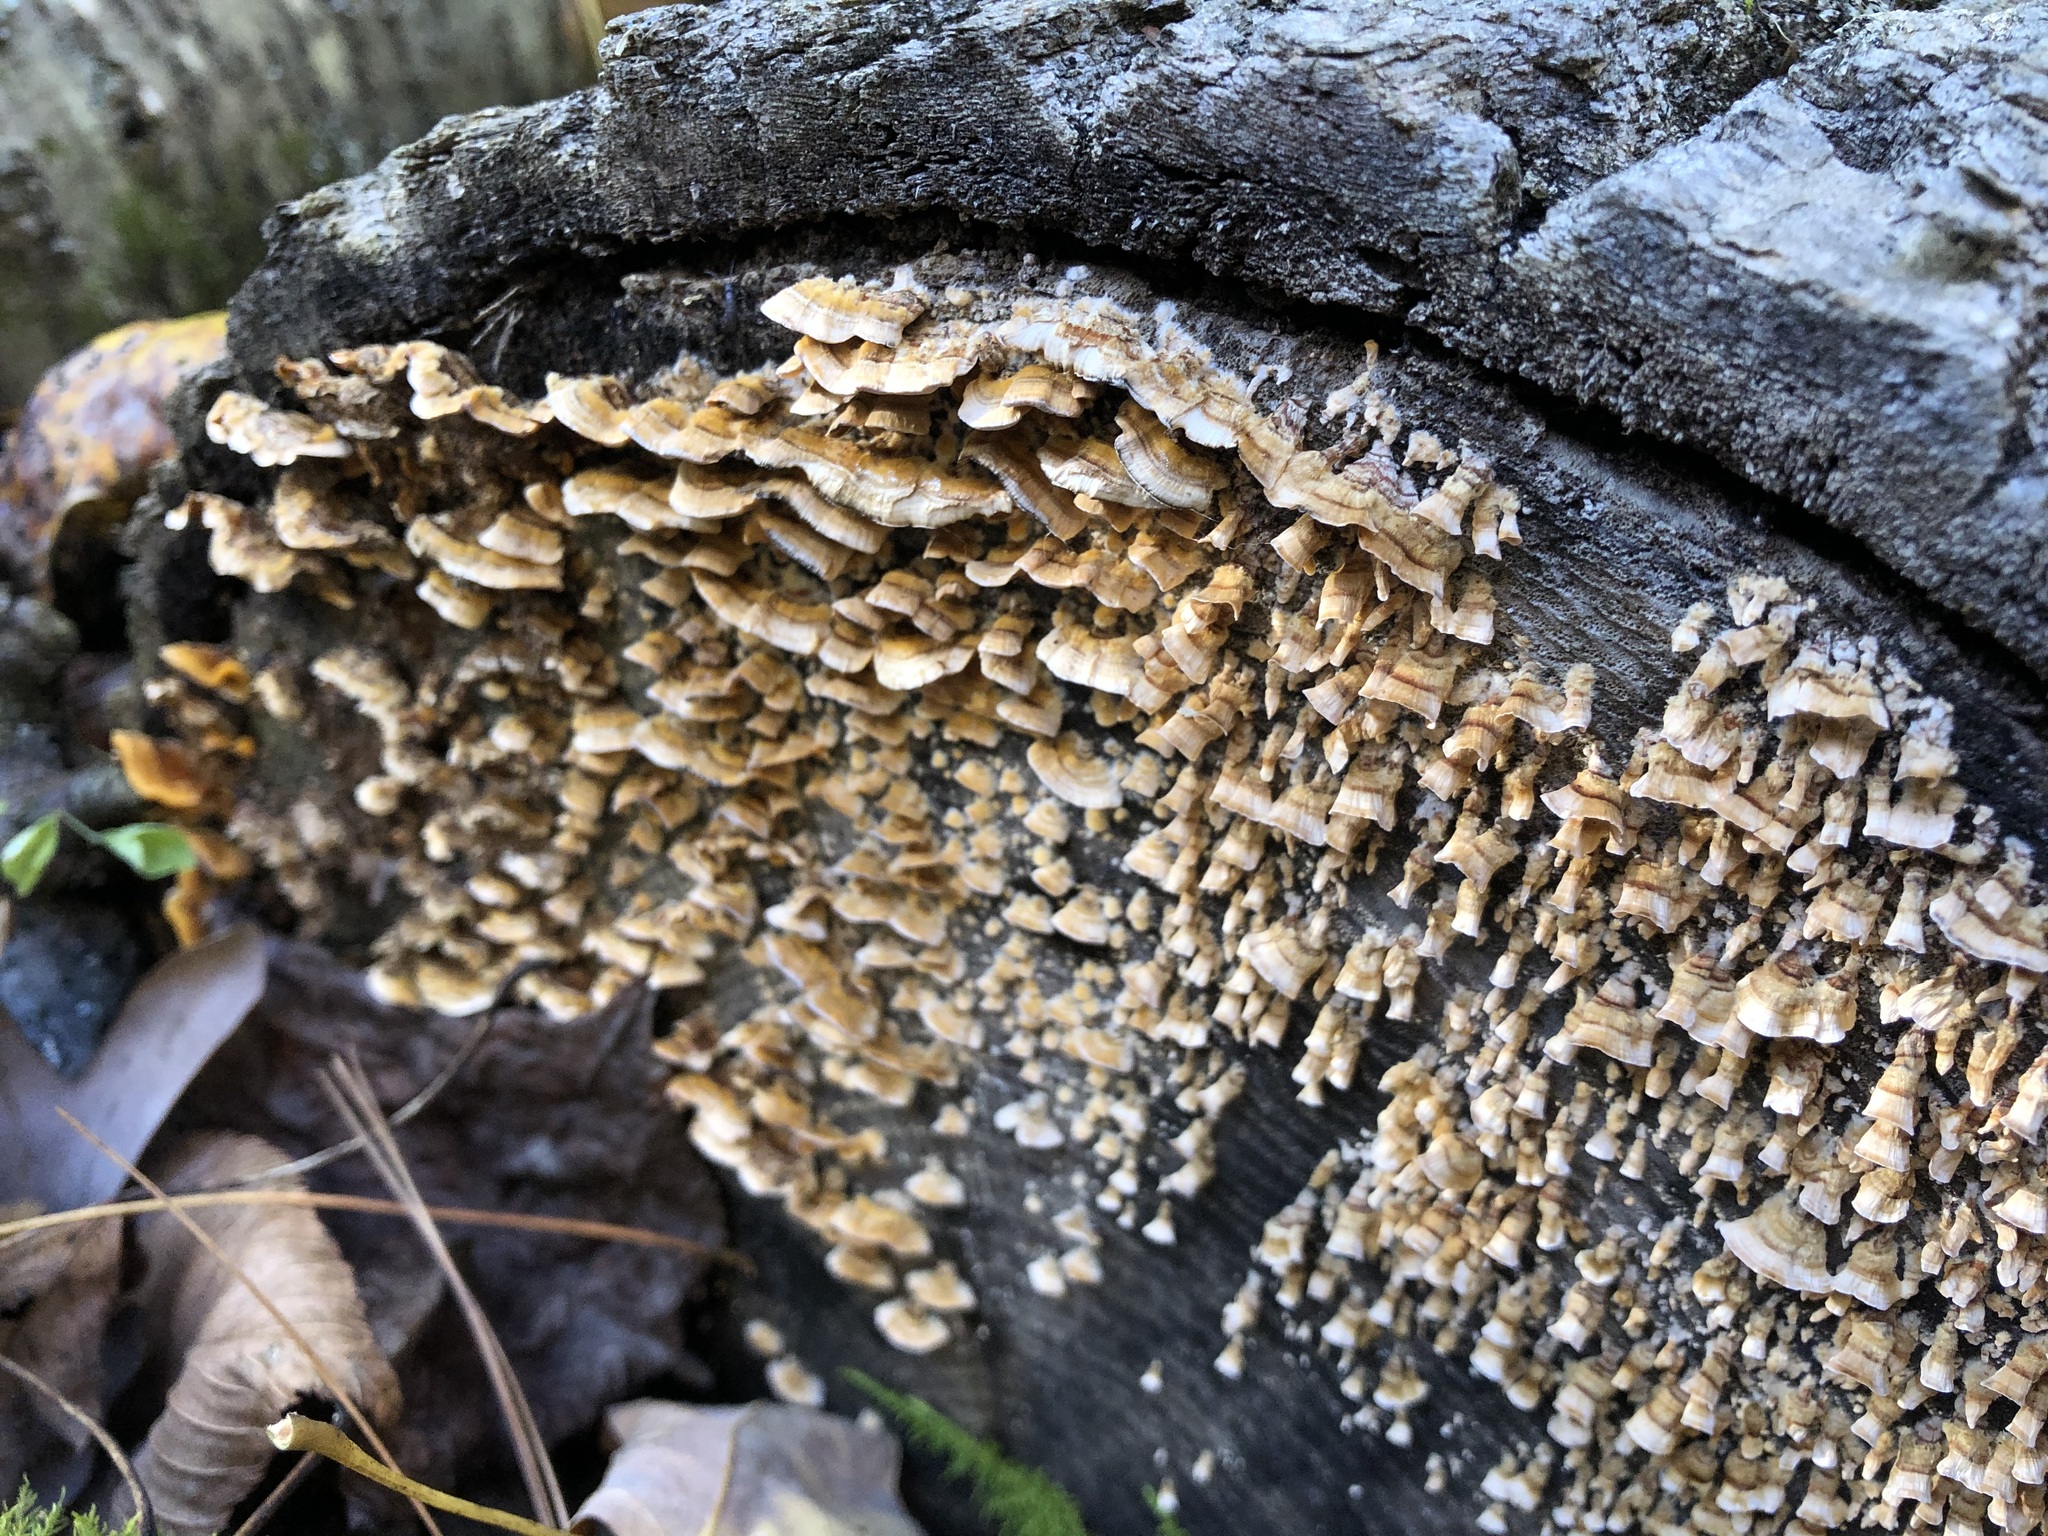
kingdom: Fungi
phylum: Basidiomycota
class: Agaricomycetes
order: Russulales
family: Stereaceae
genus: Stereum
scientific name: Stereum complicatum
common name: Crowded parchment
